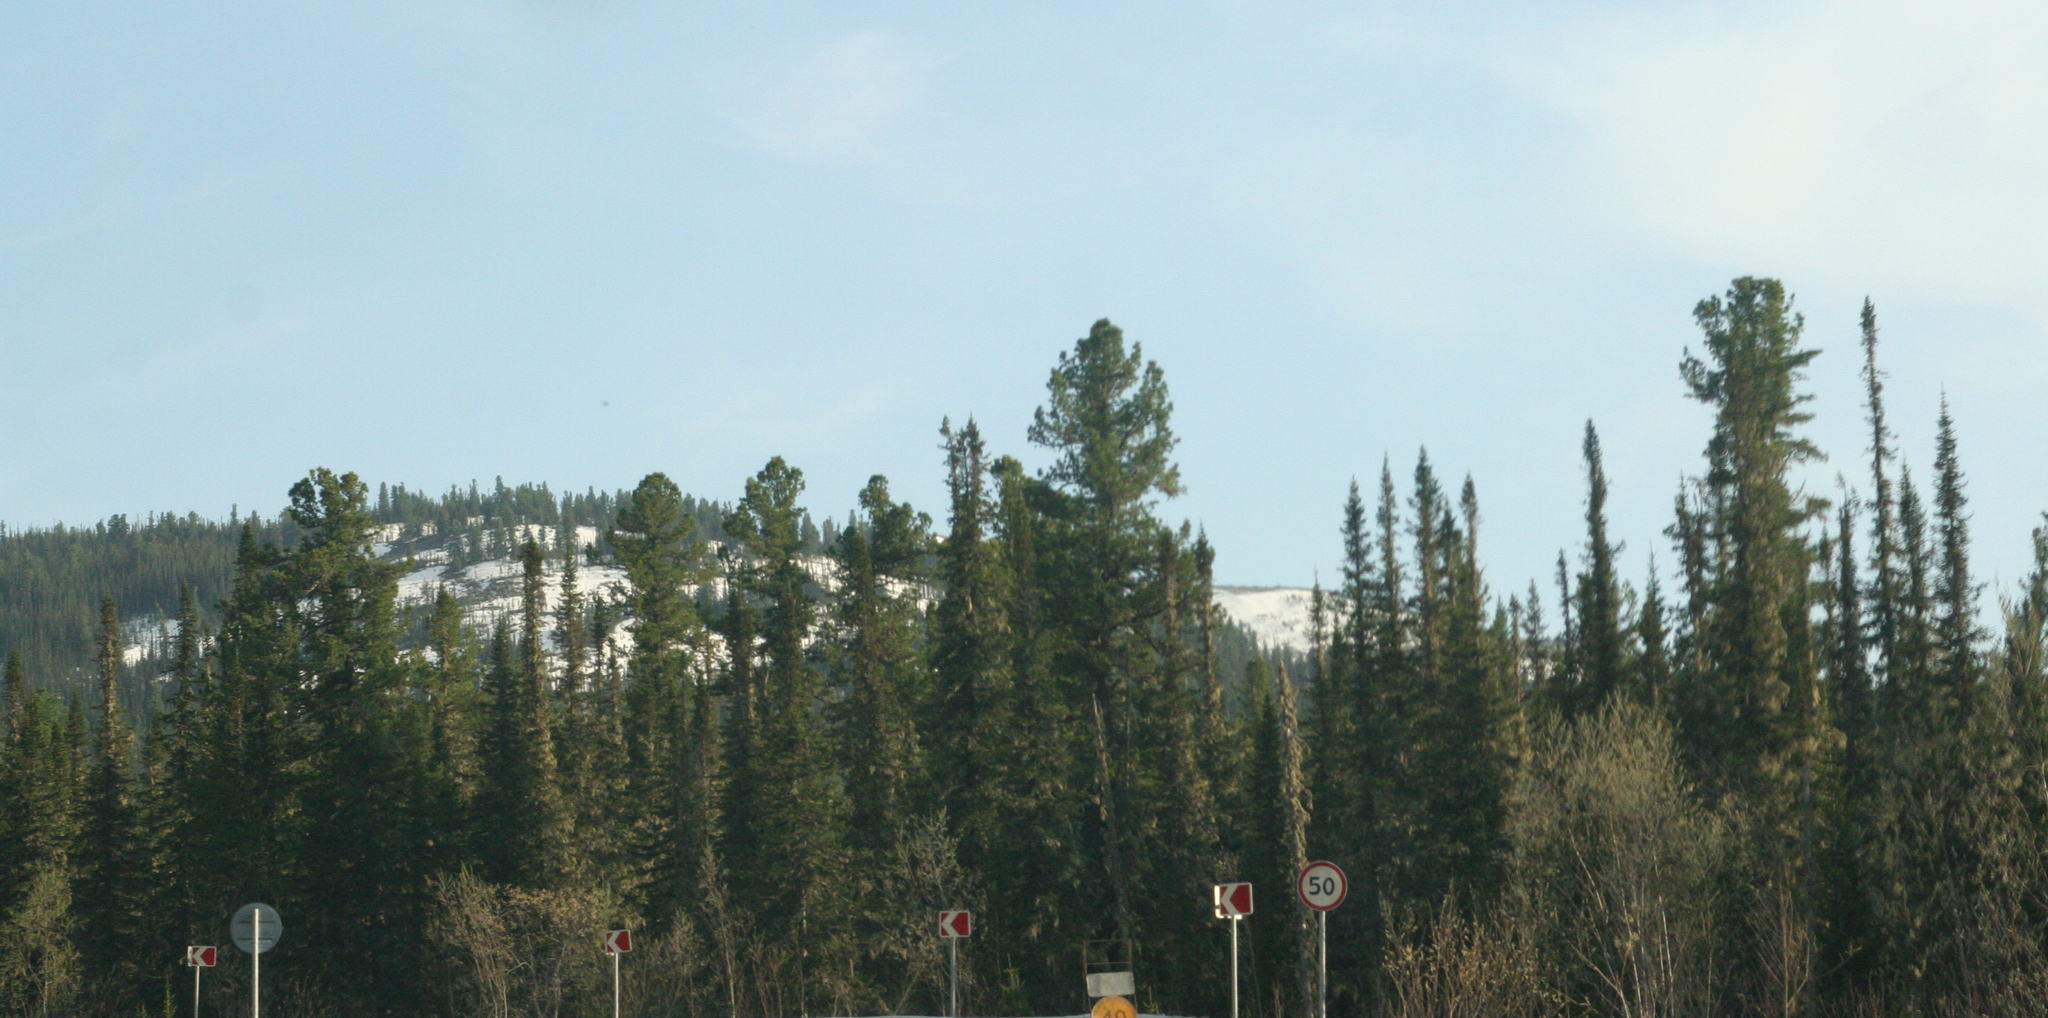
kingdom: Plantae
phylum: Tracheophyta
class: Pinopsida
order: Pinales
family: Pinaceae
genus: Abies
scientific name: Abies sibirica
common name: Siberian fir
